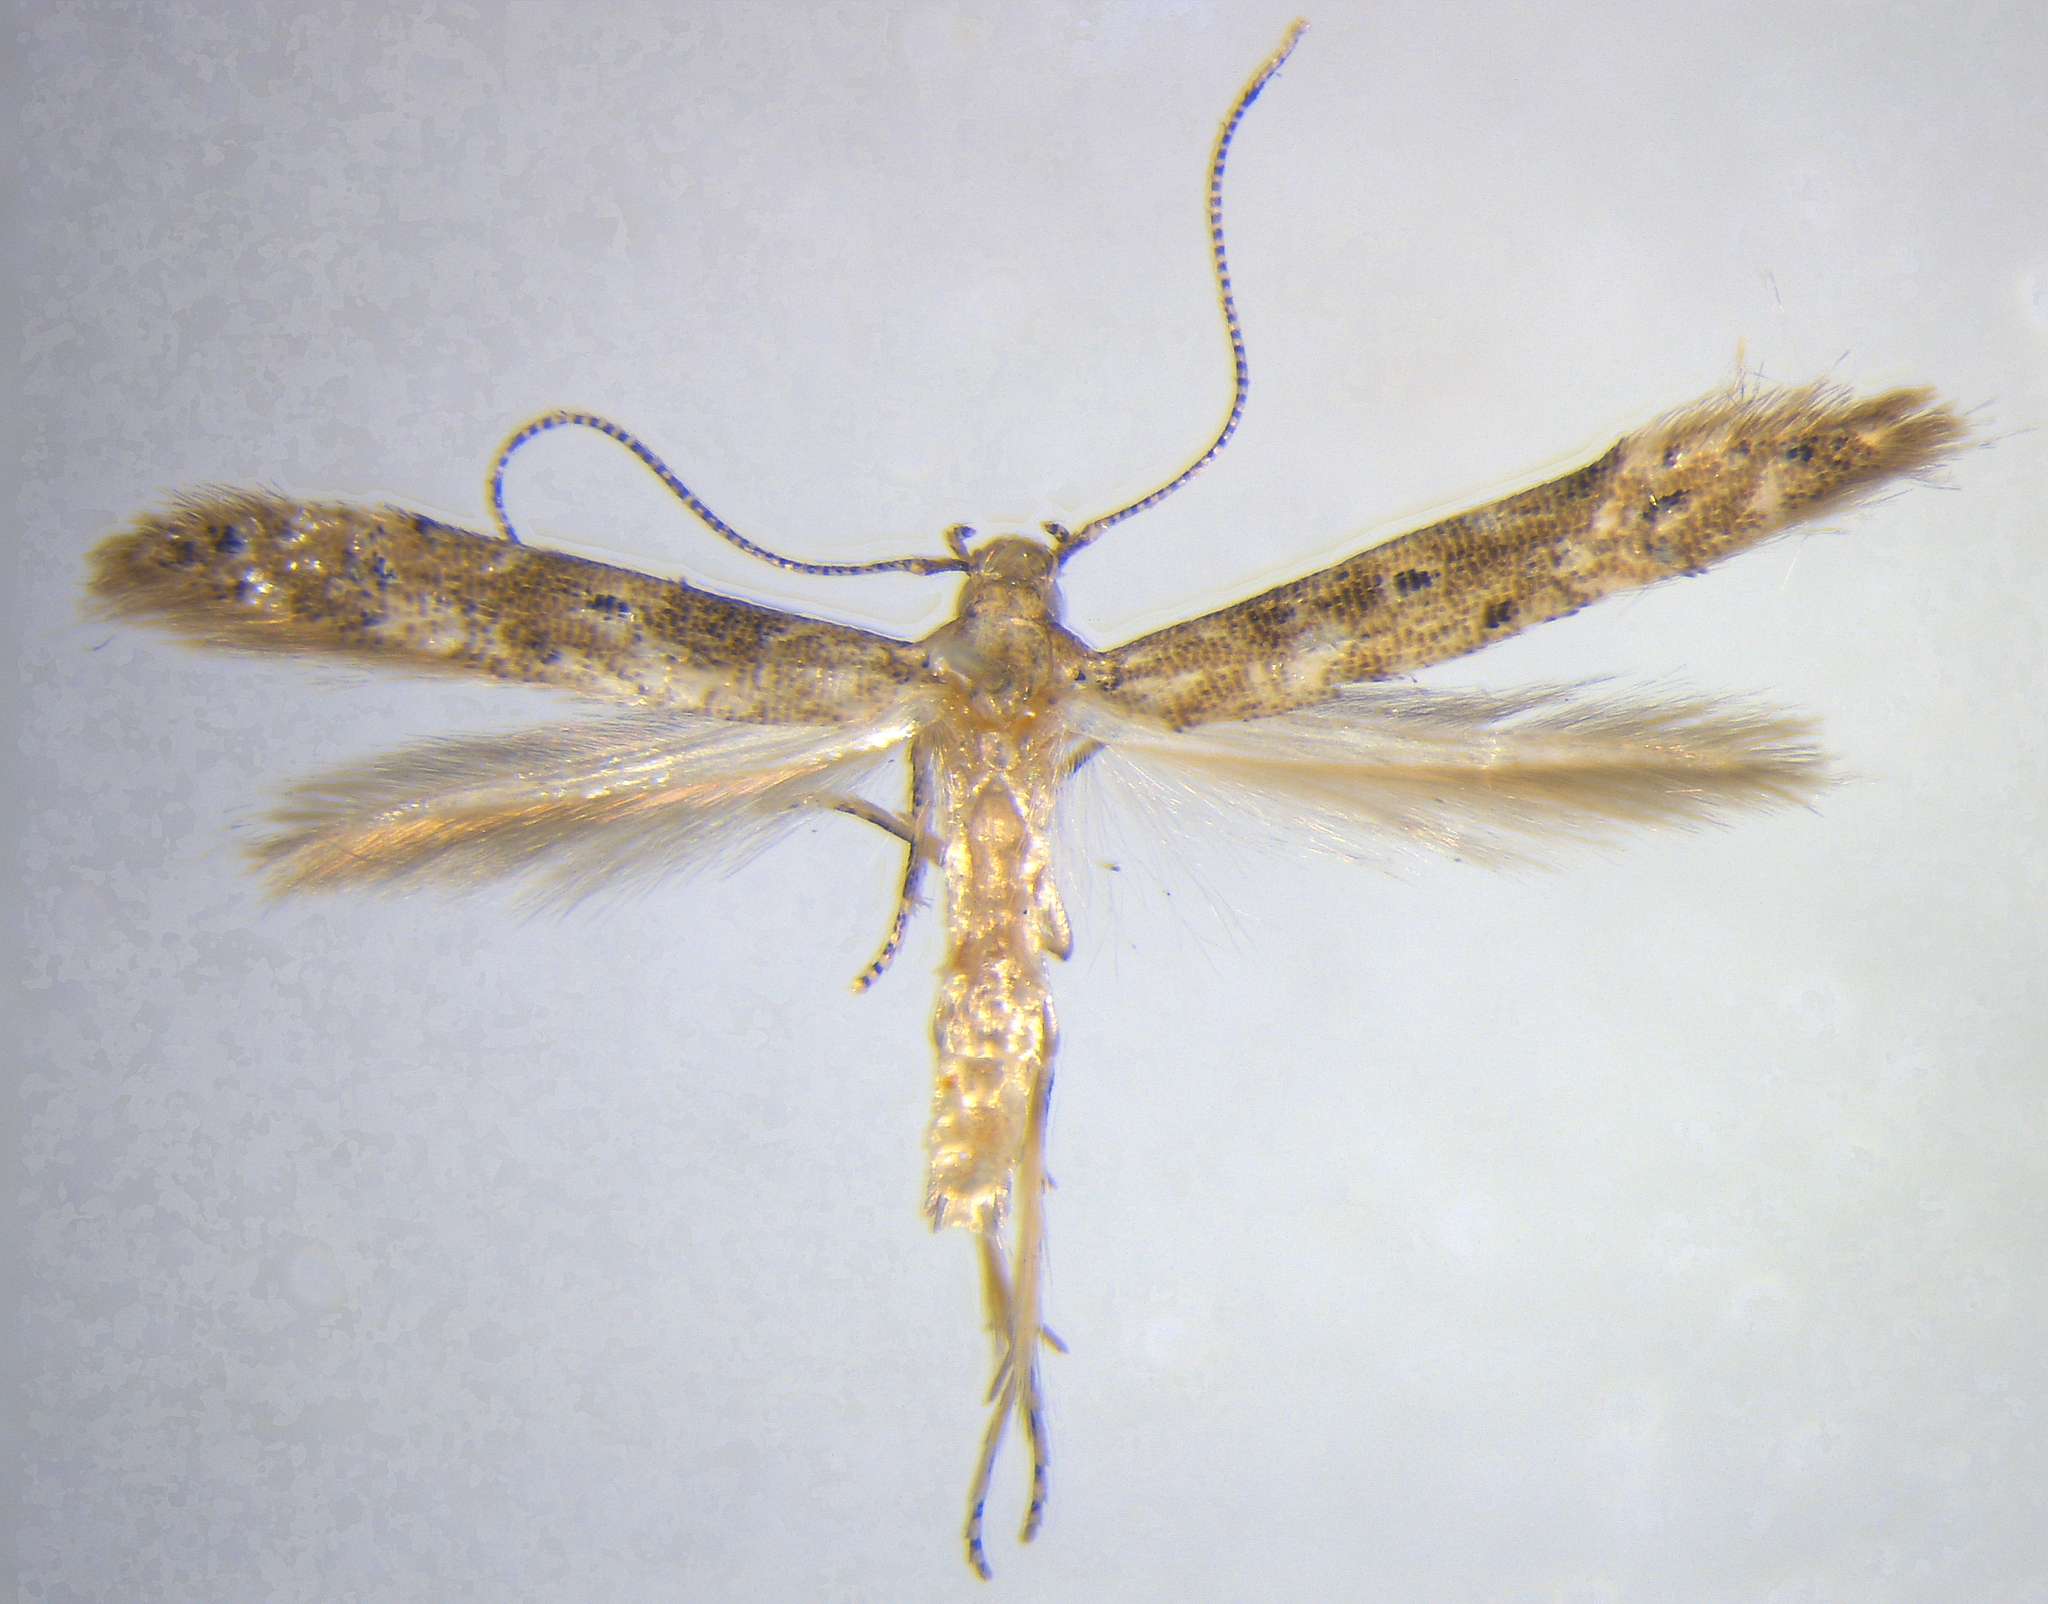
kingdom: Animalia
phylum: Arthropoda
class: Insecta
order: Lepidoptera
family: Elachistidae
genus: Microcolona
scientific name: Microcolona limodes
